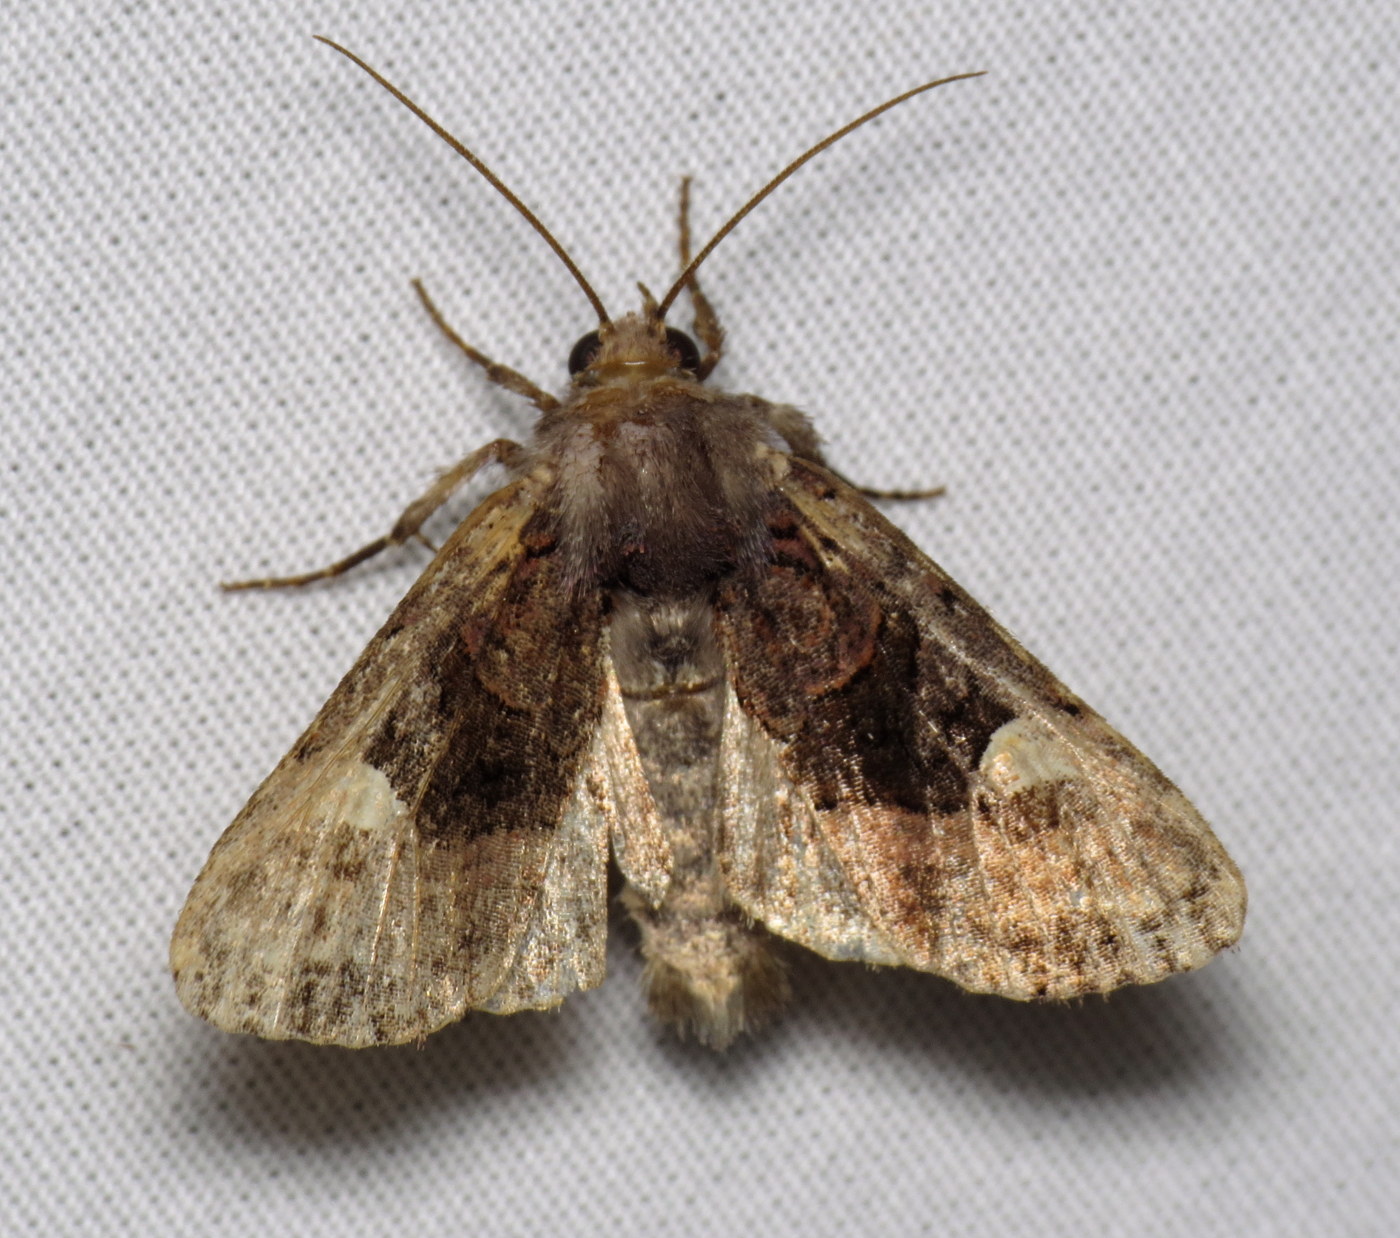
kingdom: Animalia
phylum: Arthropoda
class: Insecta
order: Lepidoptera
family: Noctuidae
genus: Euplexia
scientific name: Euplexia benesimilis
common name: American angle shades
